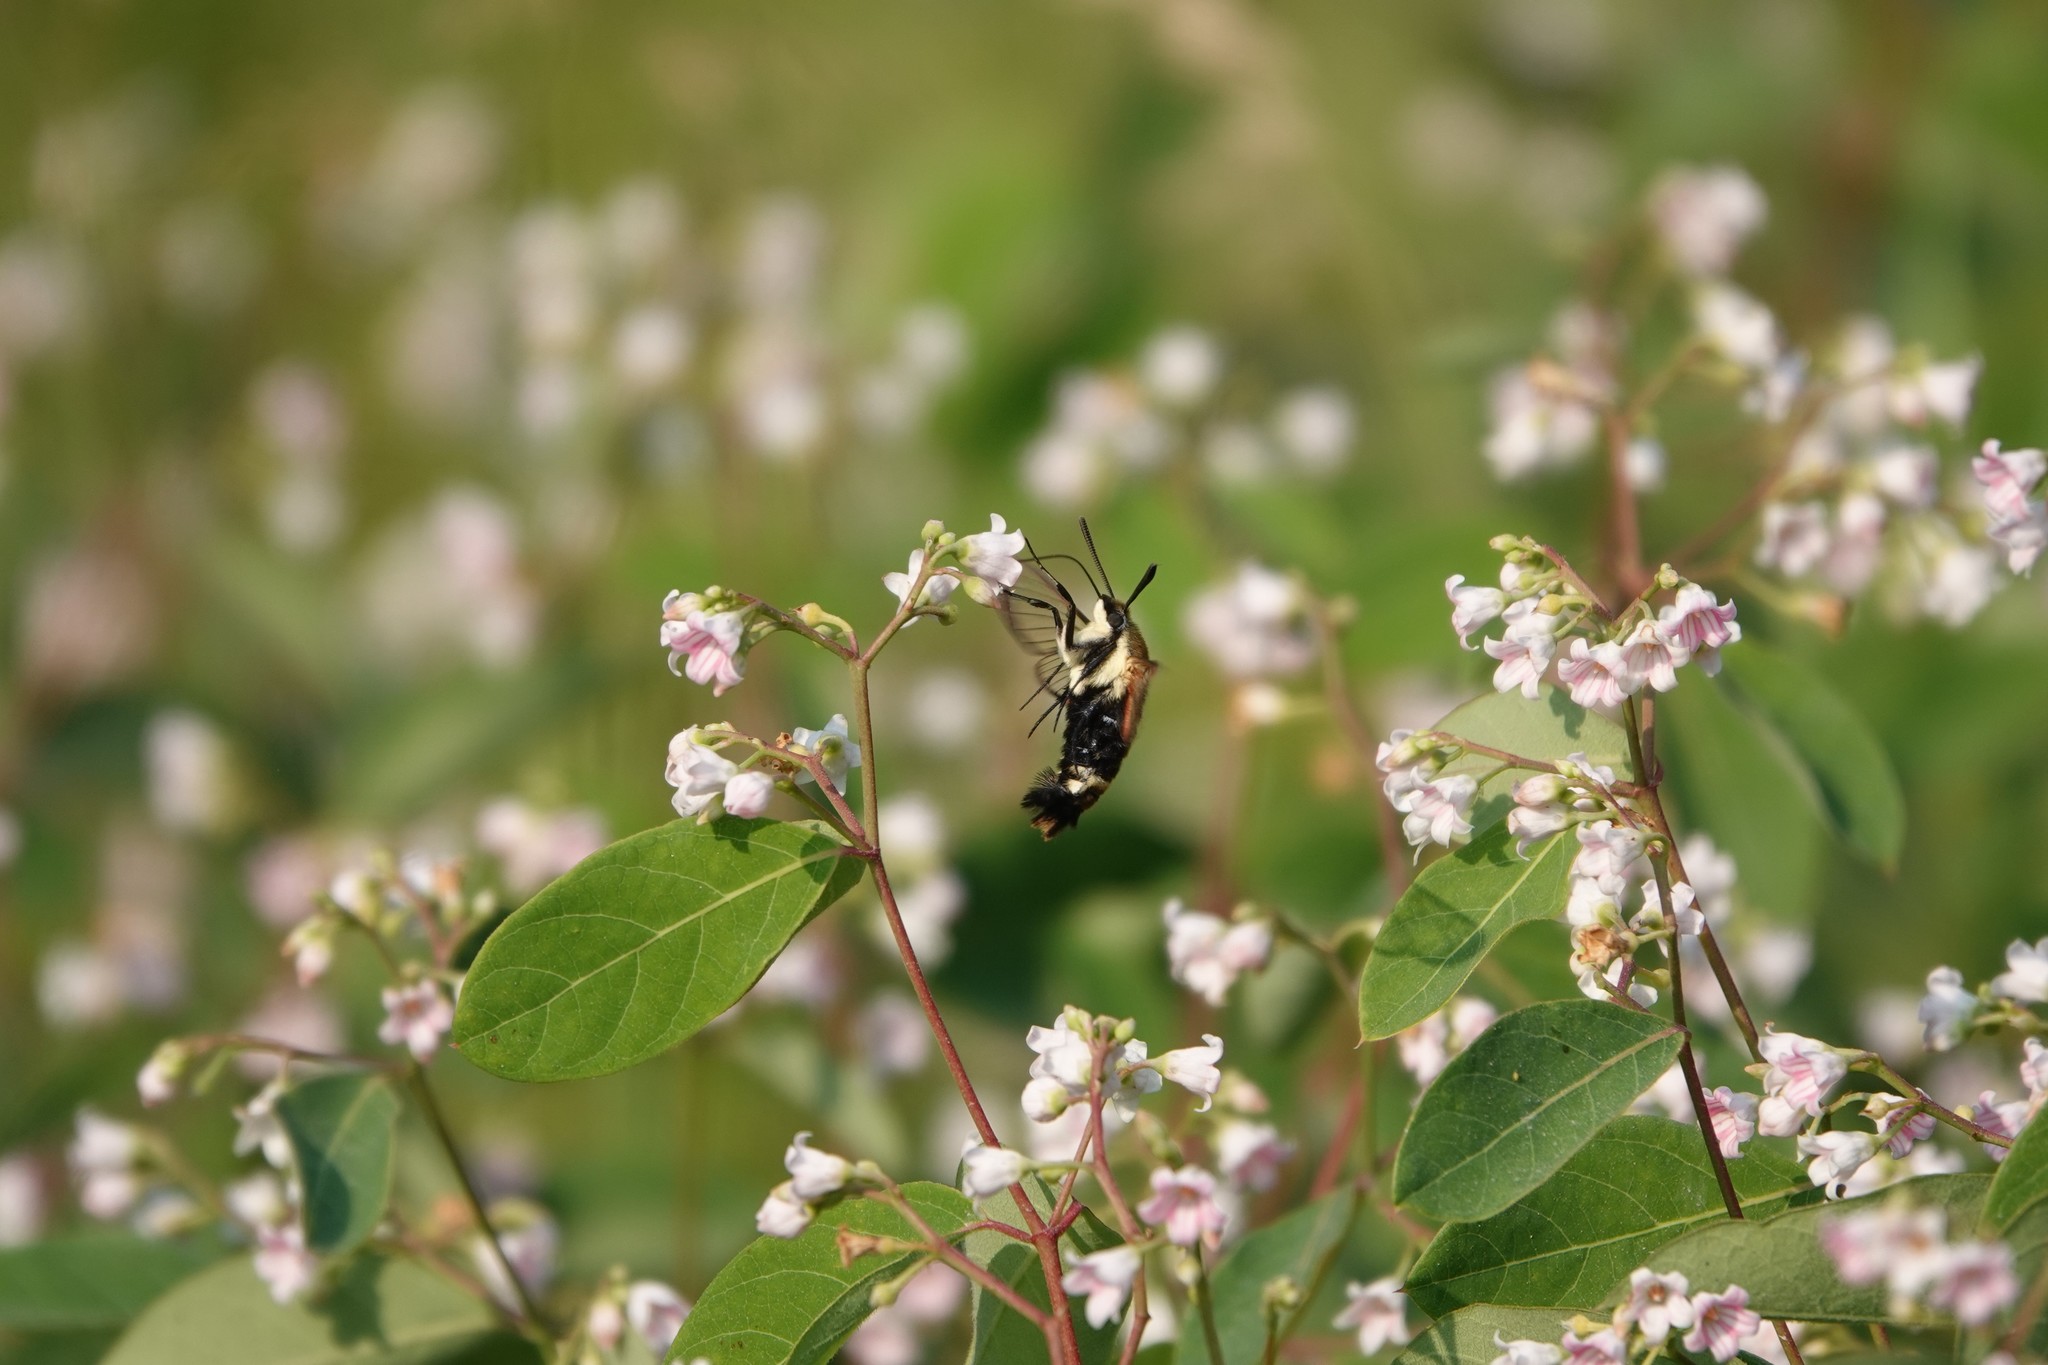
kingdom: Animalia
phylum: Arthropoda
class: Insecta
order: Lepidoptera
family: Sphingidae
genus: Hemaris
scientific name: Hemaris diffinis
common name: Bumblebee moth
